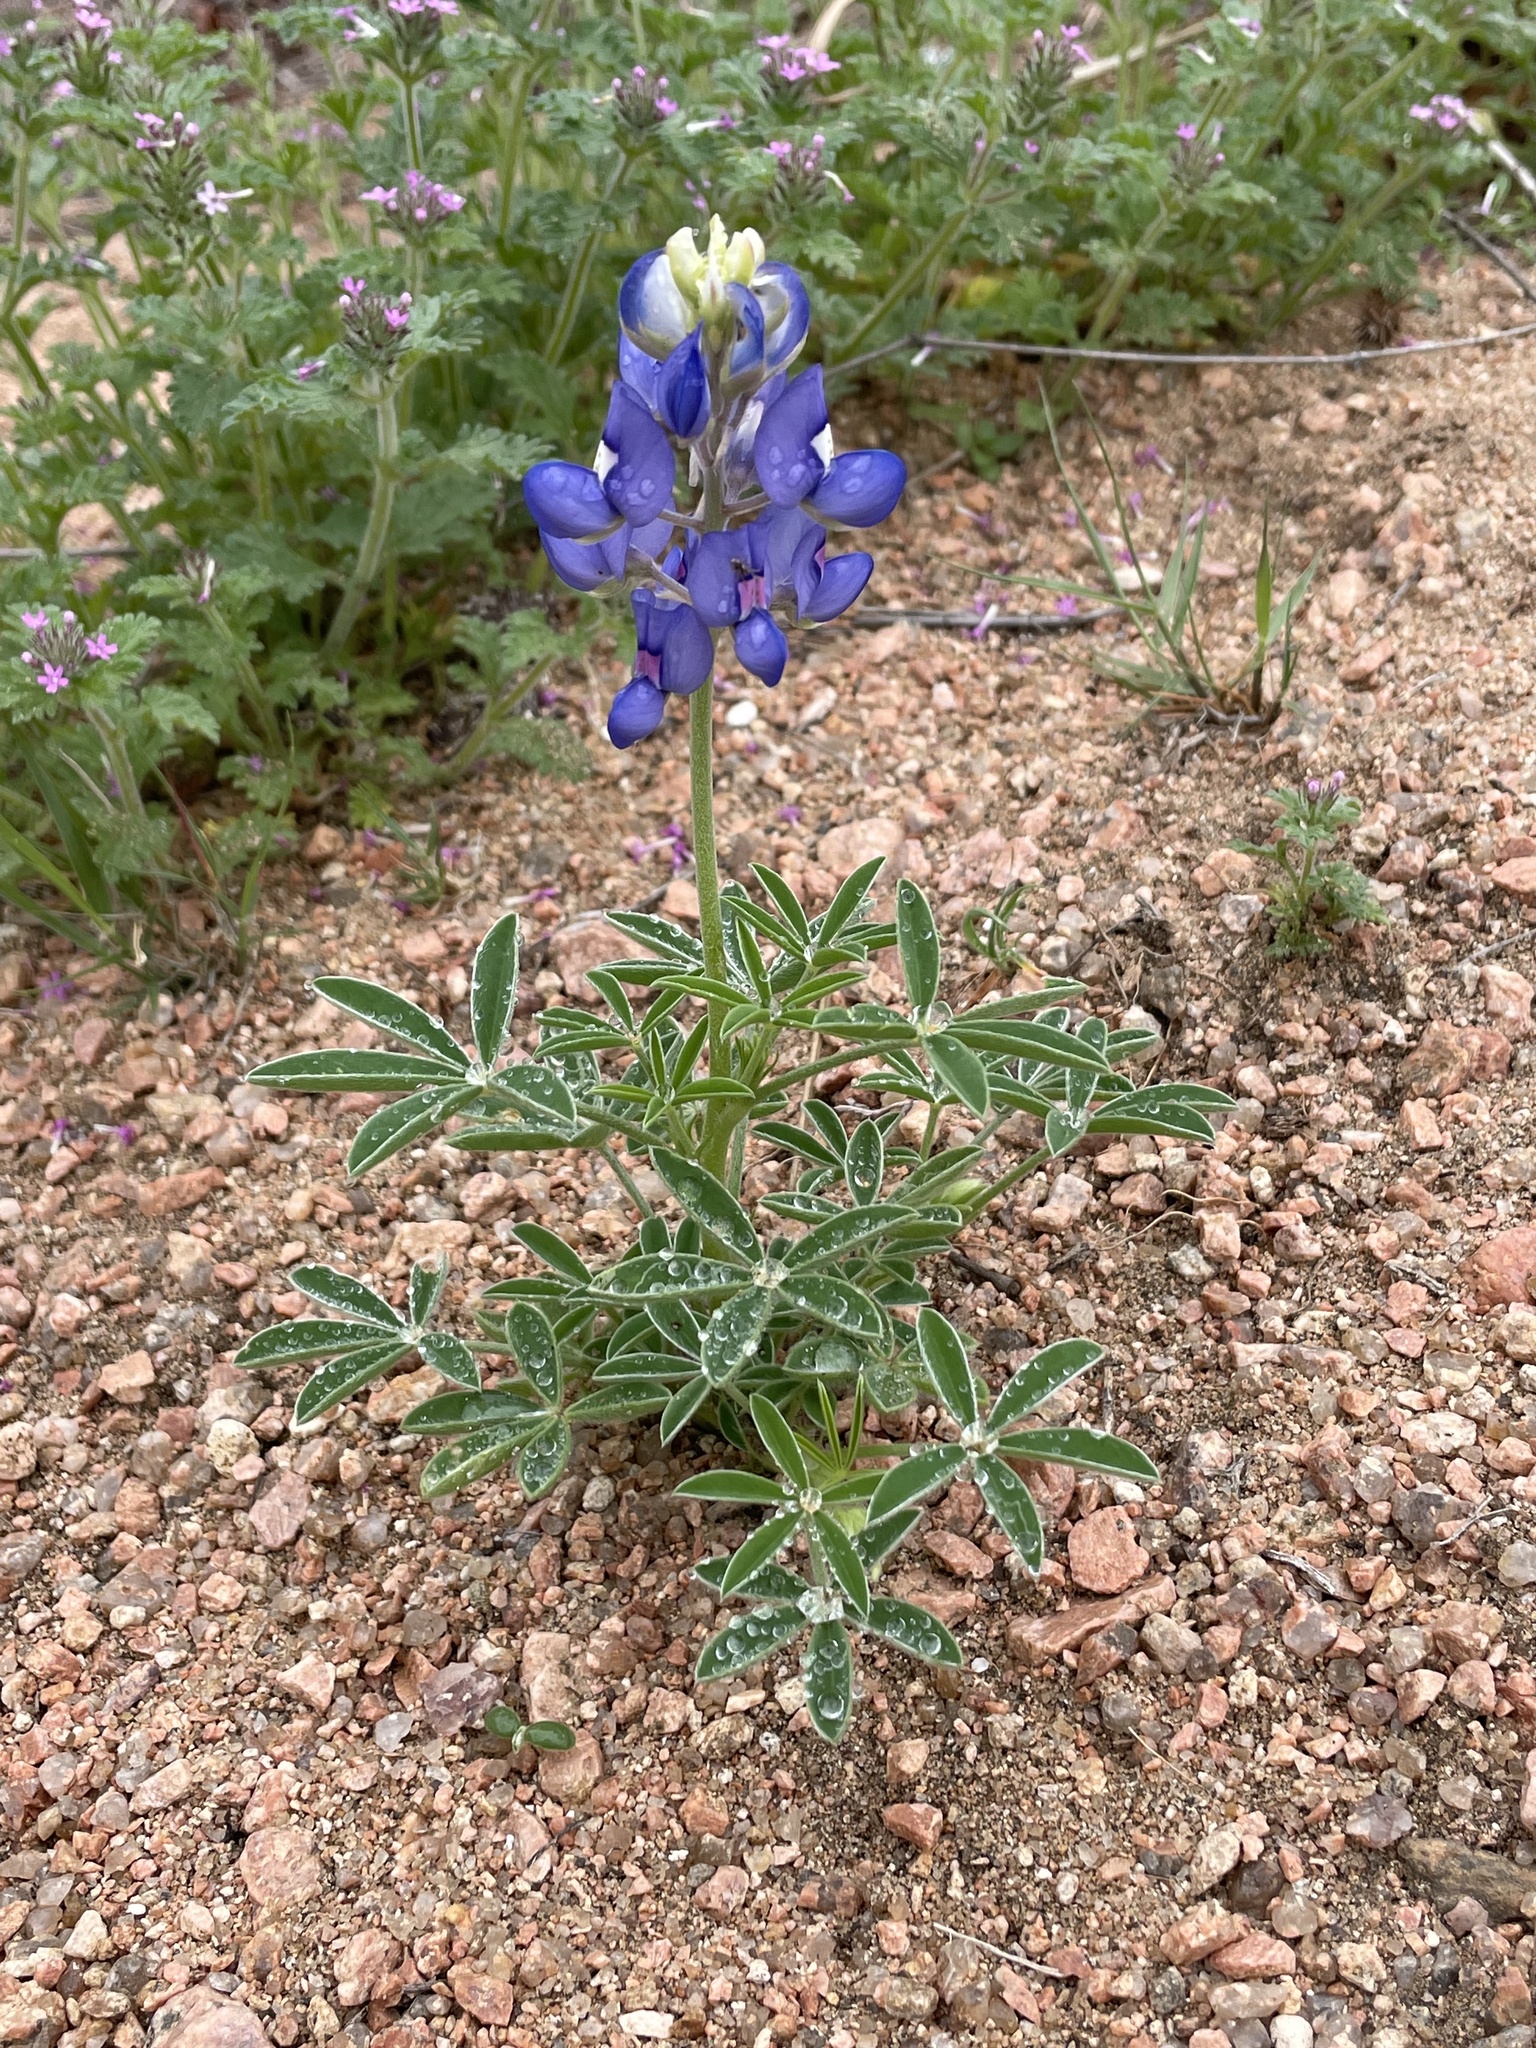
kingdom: Plantae
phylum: Tracheophyta
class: Magnoliopsida
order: Fabales
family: Fabaceae
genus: Lupinus
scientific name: Lupinus texensis
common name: Texas bluebonnet
